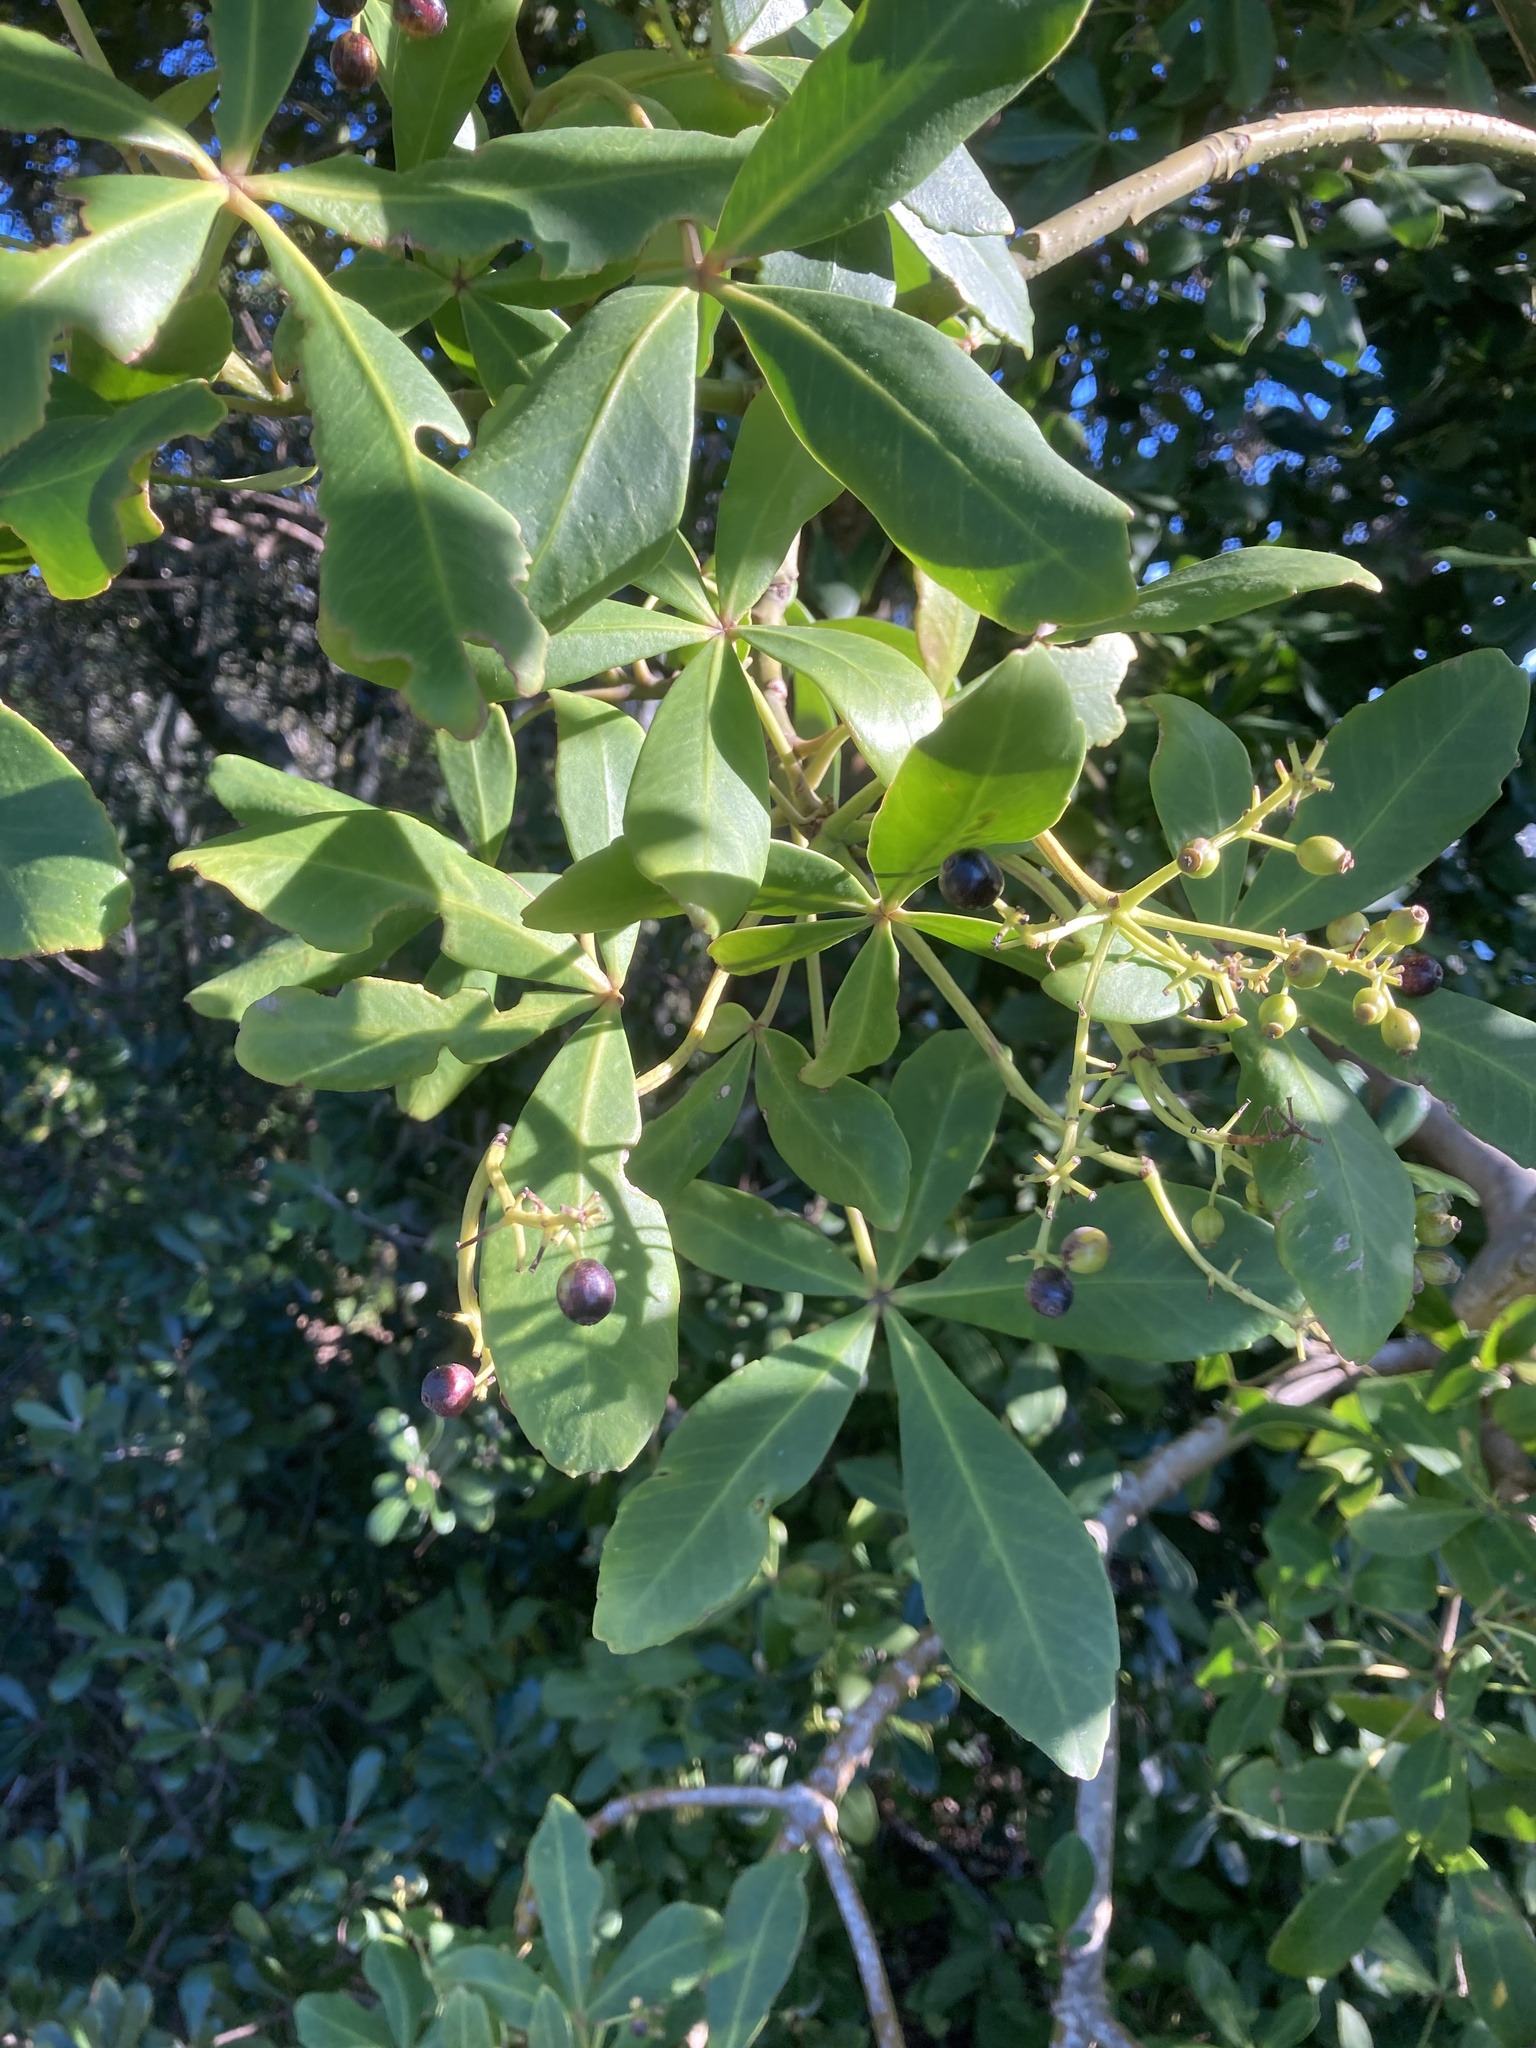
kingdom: Plantae
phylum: Tracheophyta
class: Magnoliopsida
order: Apiales
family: Araliaceae
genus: Pseudopanax
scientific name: Pseudopanax lessonii
